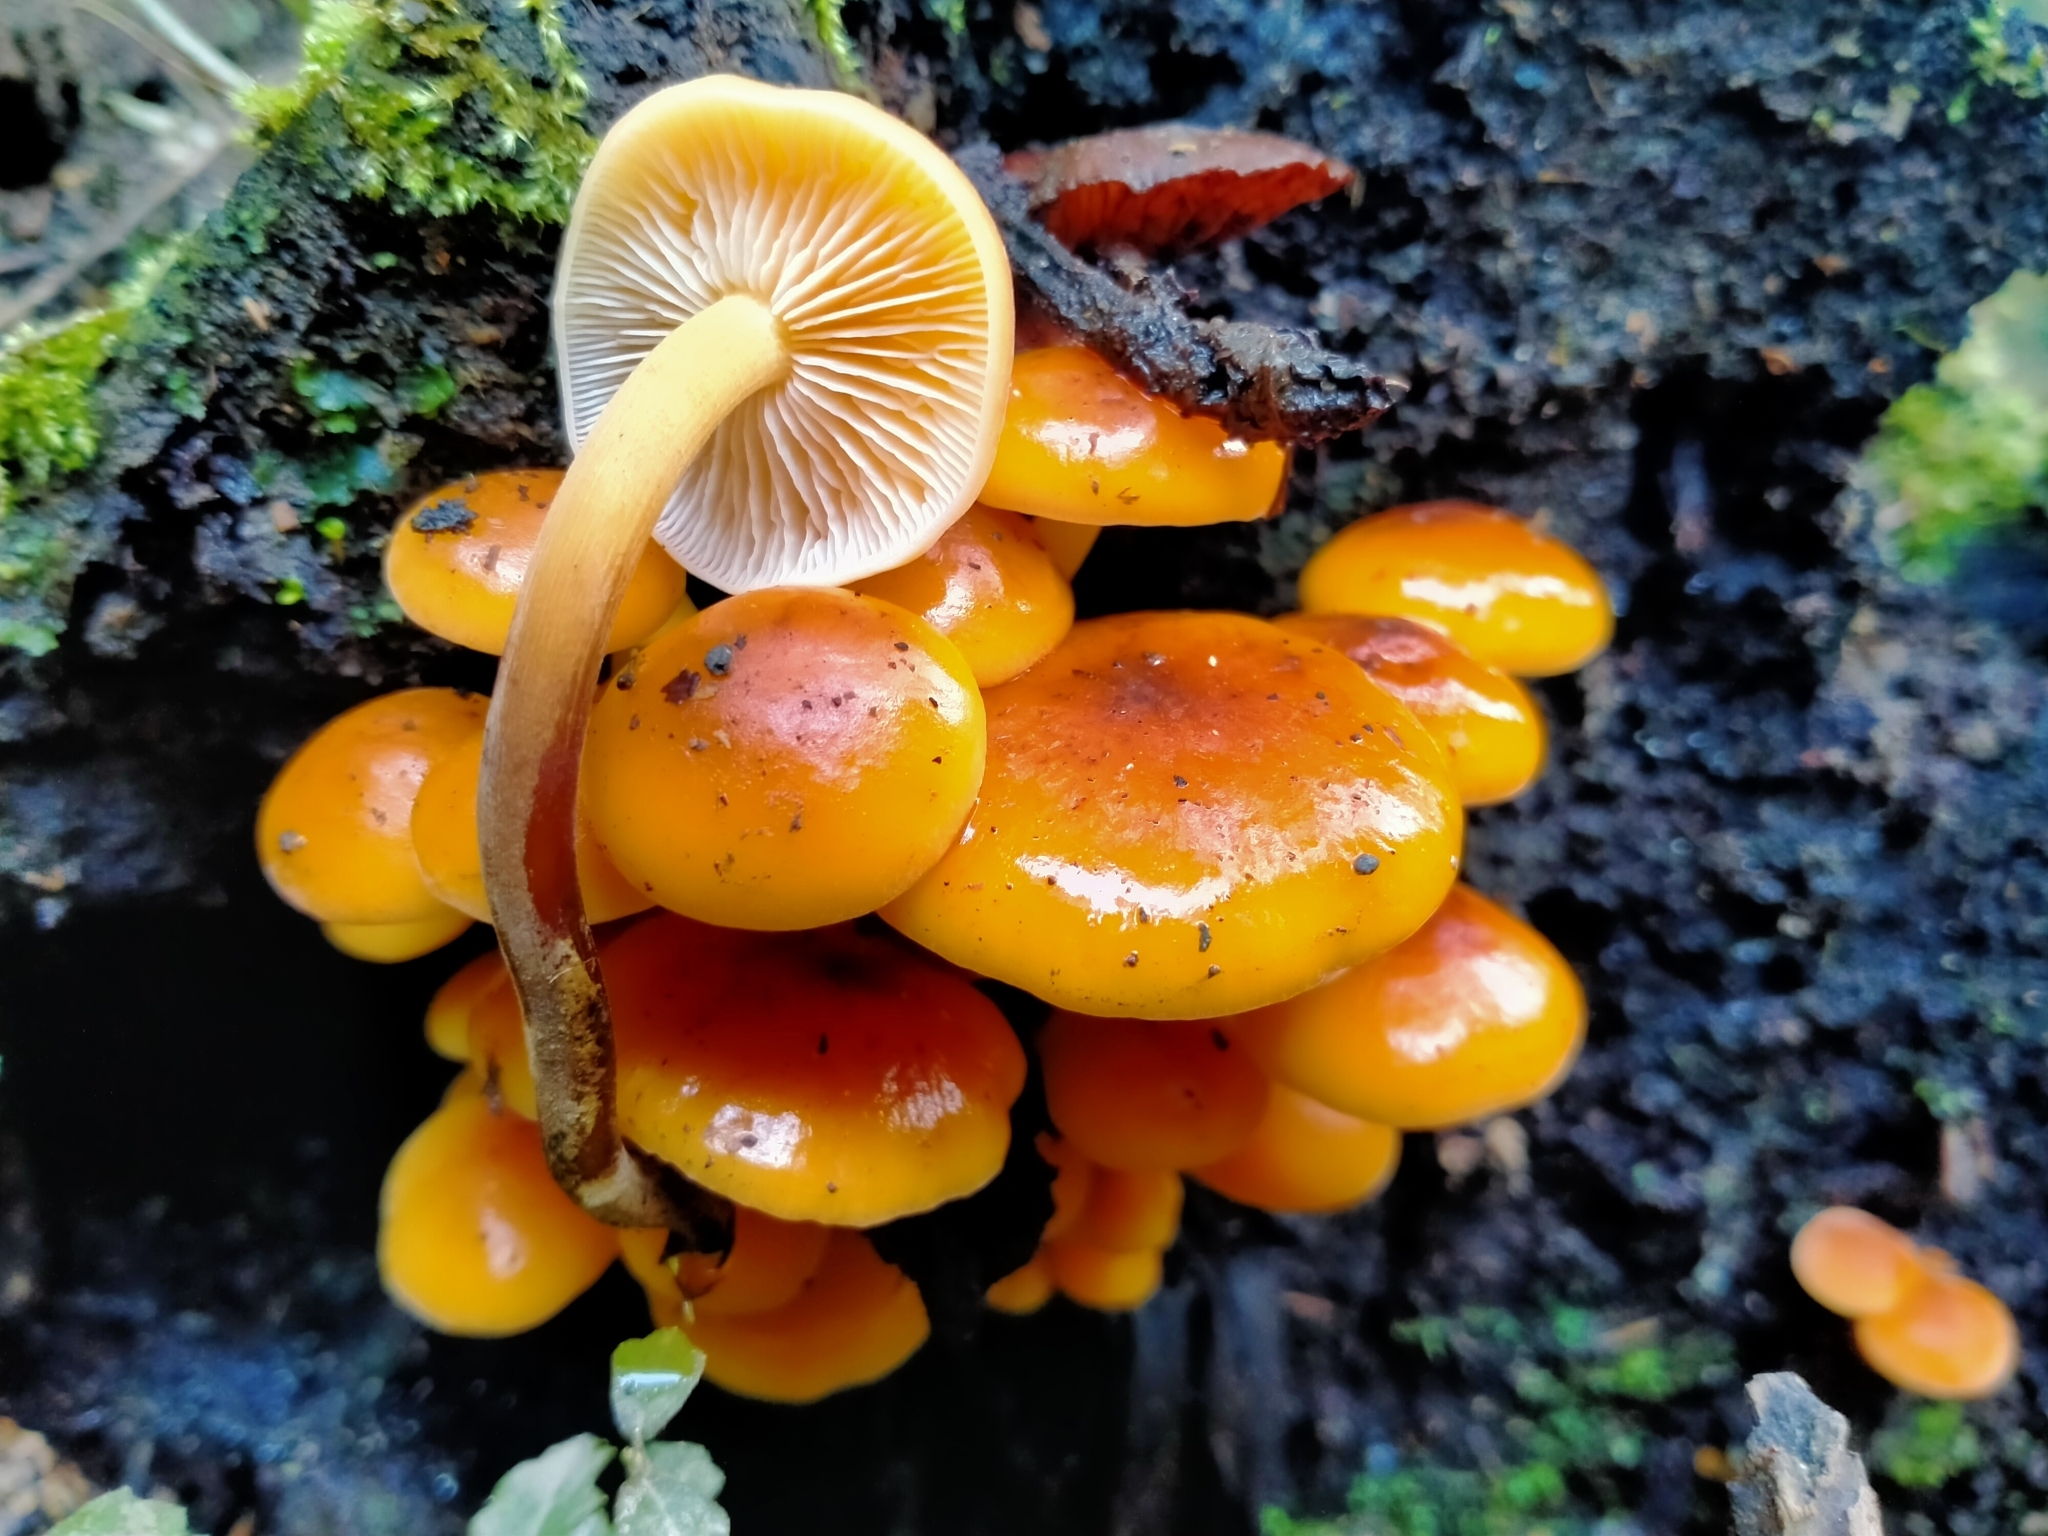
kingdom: Fungi
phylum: Basidiomycota
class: Agaricomycetes
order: Agaricales
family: Physalacriaceae
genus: Flammulina
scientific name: Flammulina velutipes
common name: Velvet shank
